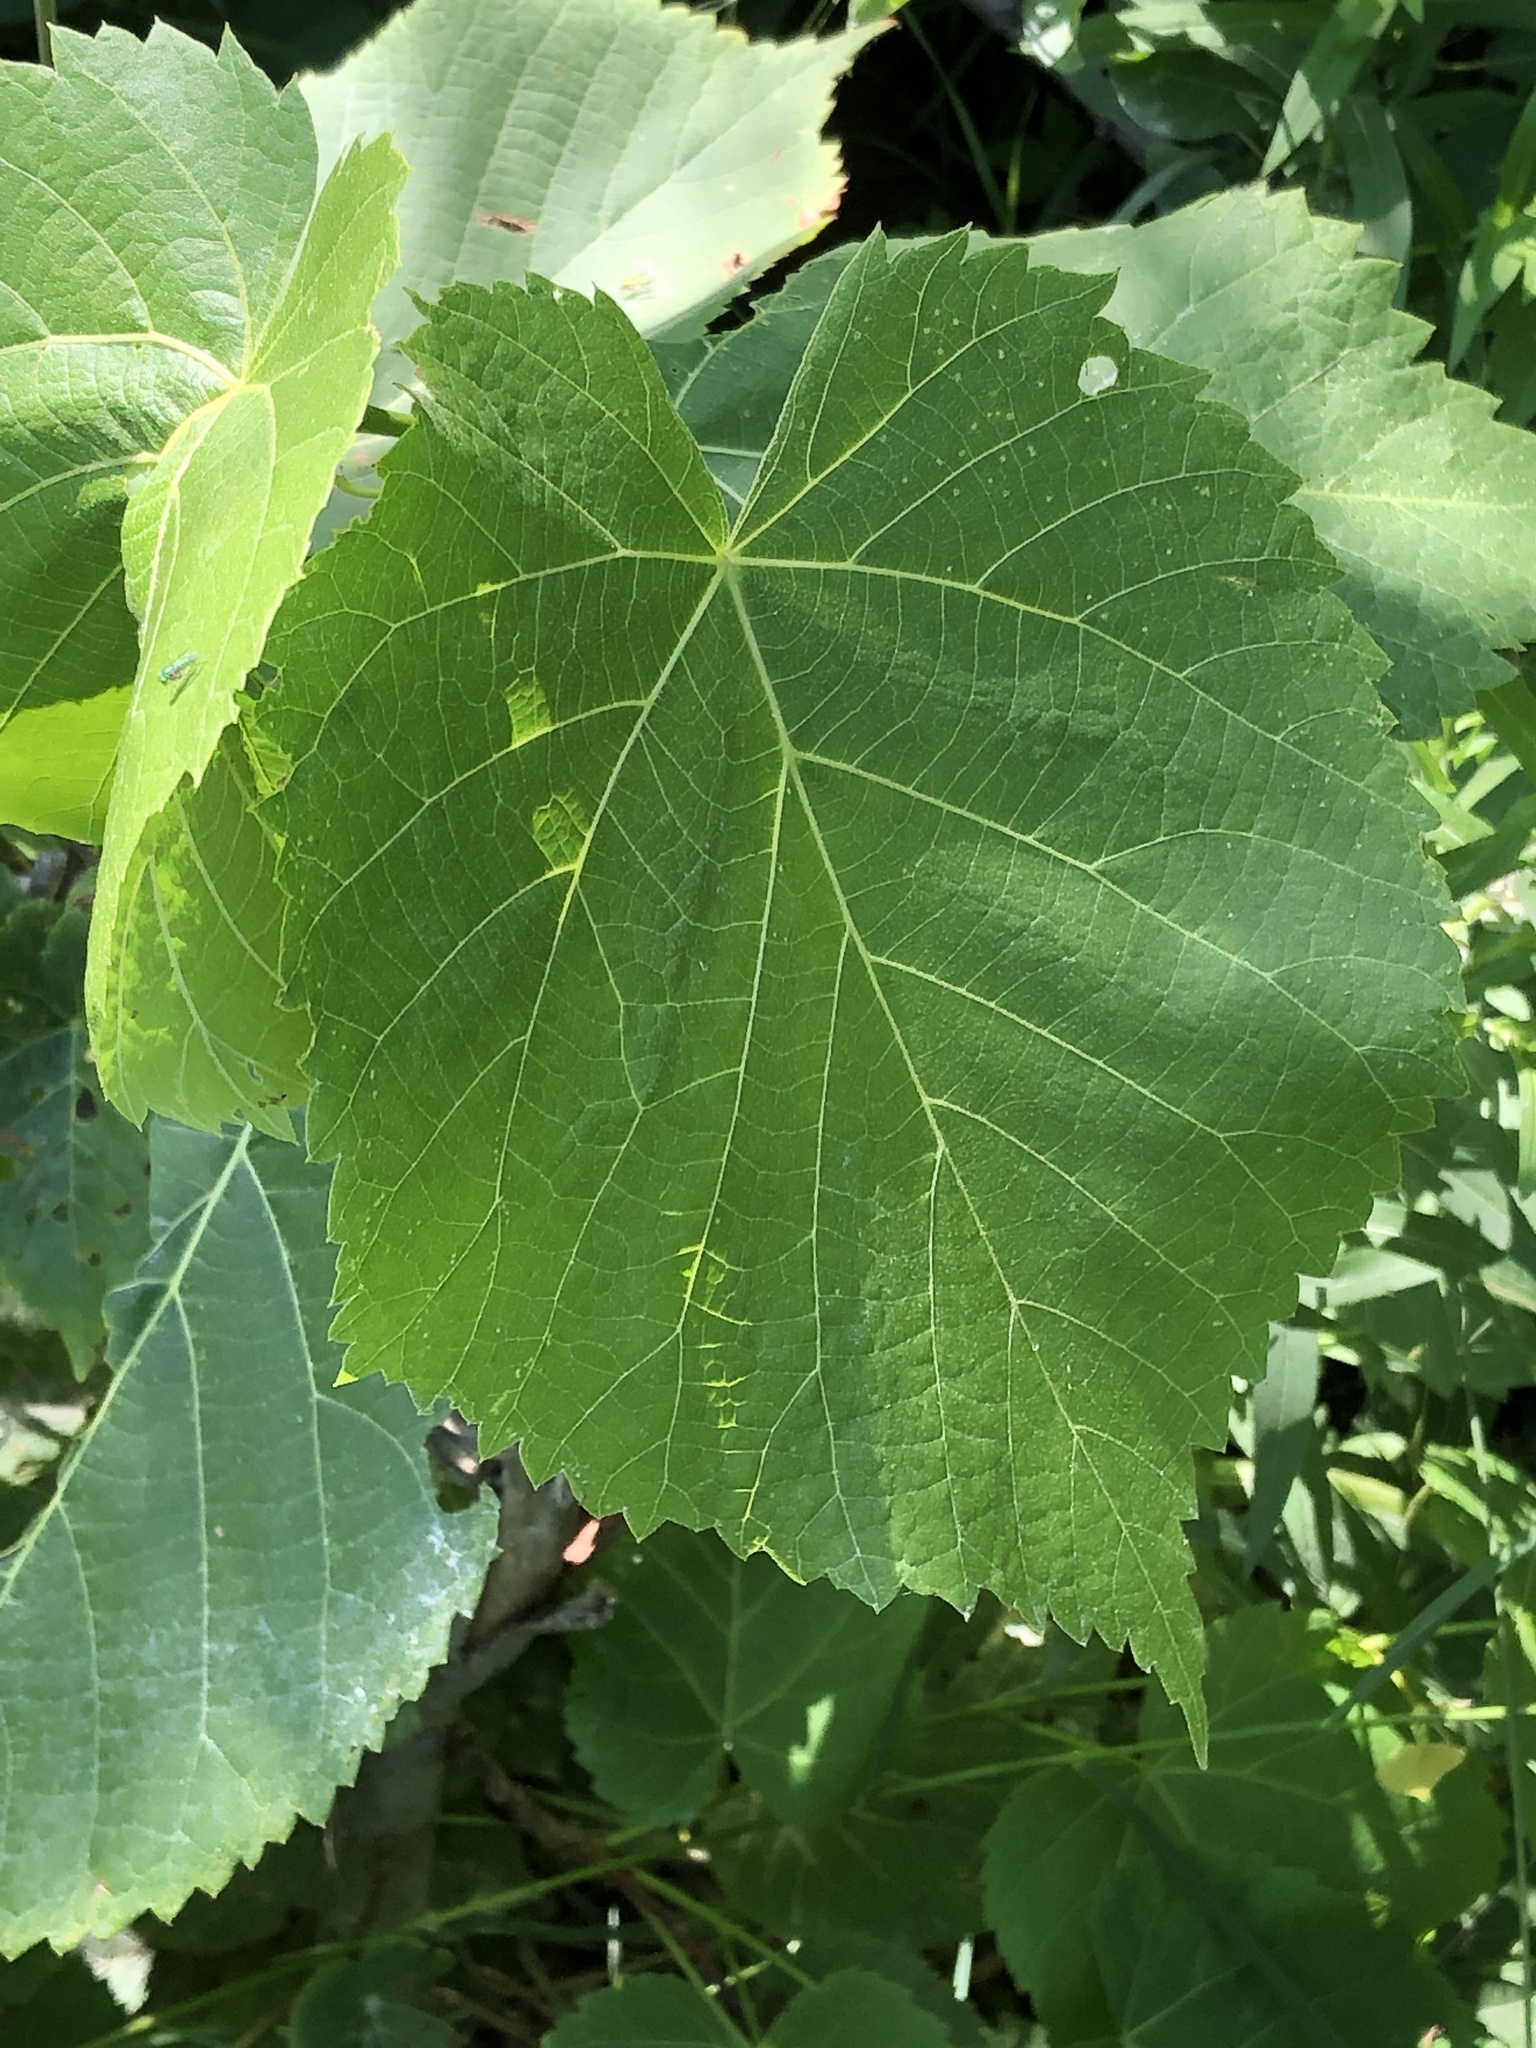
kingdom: Plantae
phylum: Tracheophyta
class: Magnoliopsida
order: Malvales
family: Malvaceae
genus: Tilia
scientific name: Tilia americana
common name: Basswood
